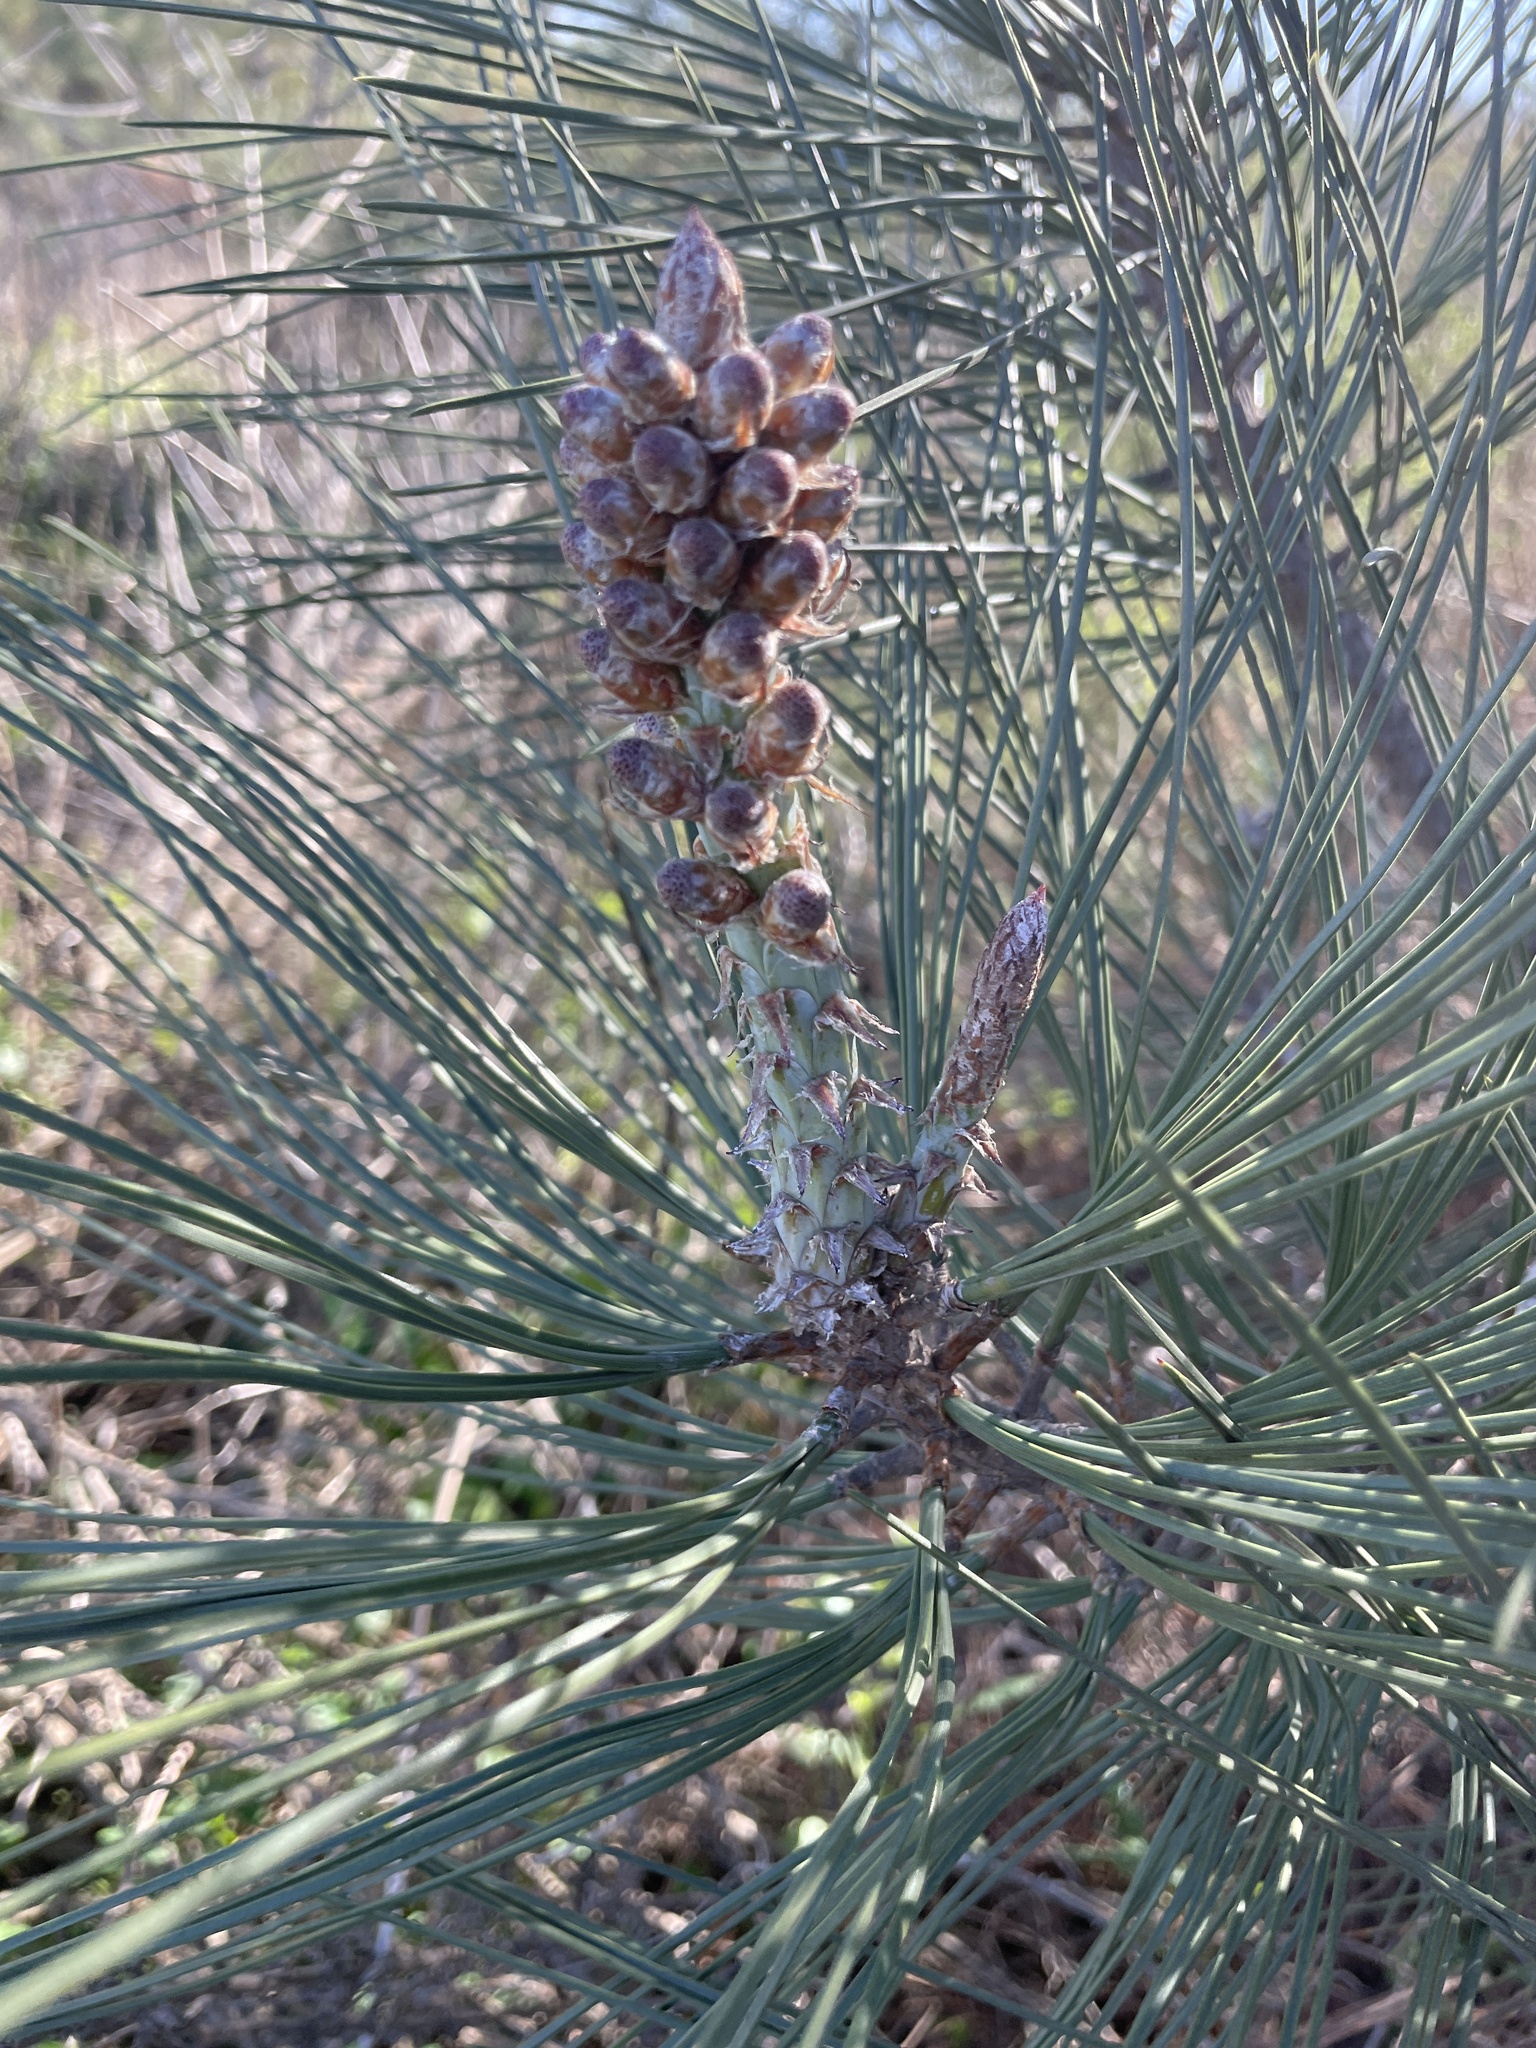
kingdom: Plantae
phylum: Tracheophyta
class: Pinopsida
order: Pinales
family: Pinaceae
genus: Pinus
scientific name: Pinus torreyana
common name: Torrey pine
